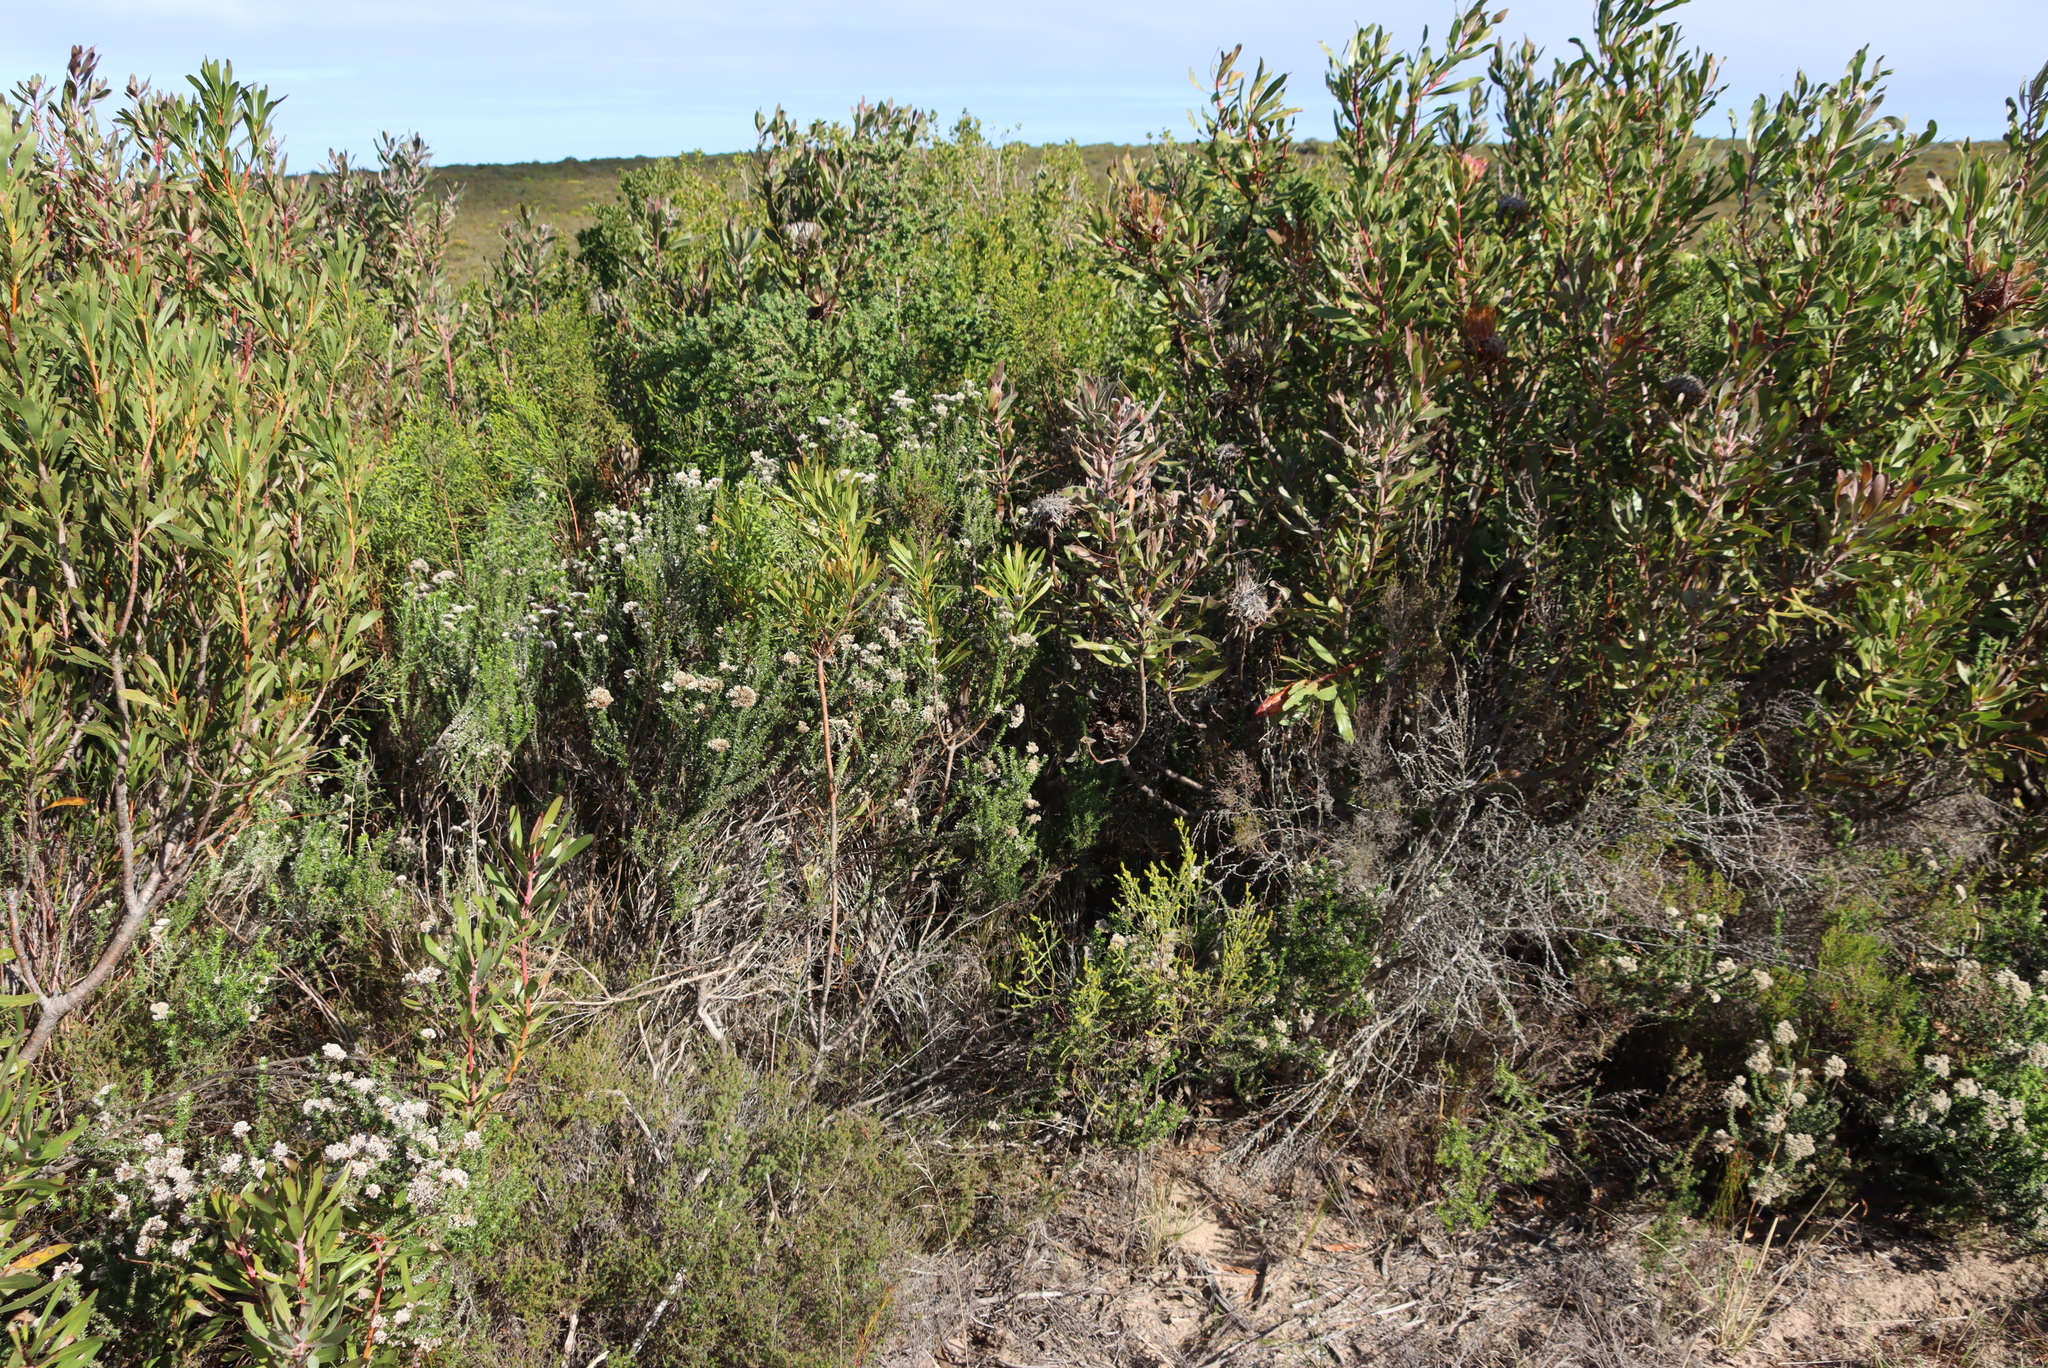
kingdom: Plantae
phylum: Tracheophyta
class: Magnoliopsida
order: Asterales
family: Asteraceae
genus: Metalasia
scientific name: Metalasia densa
